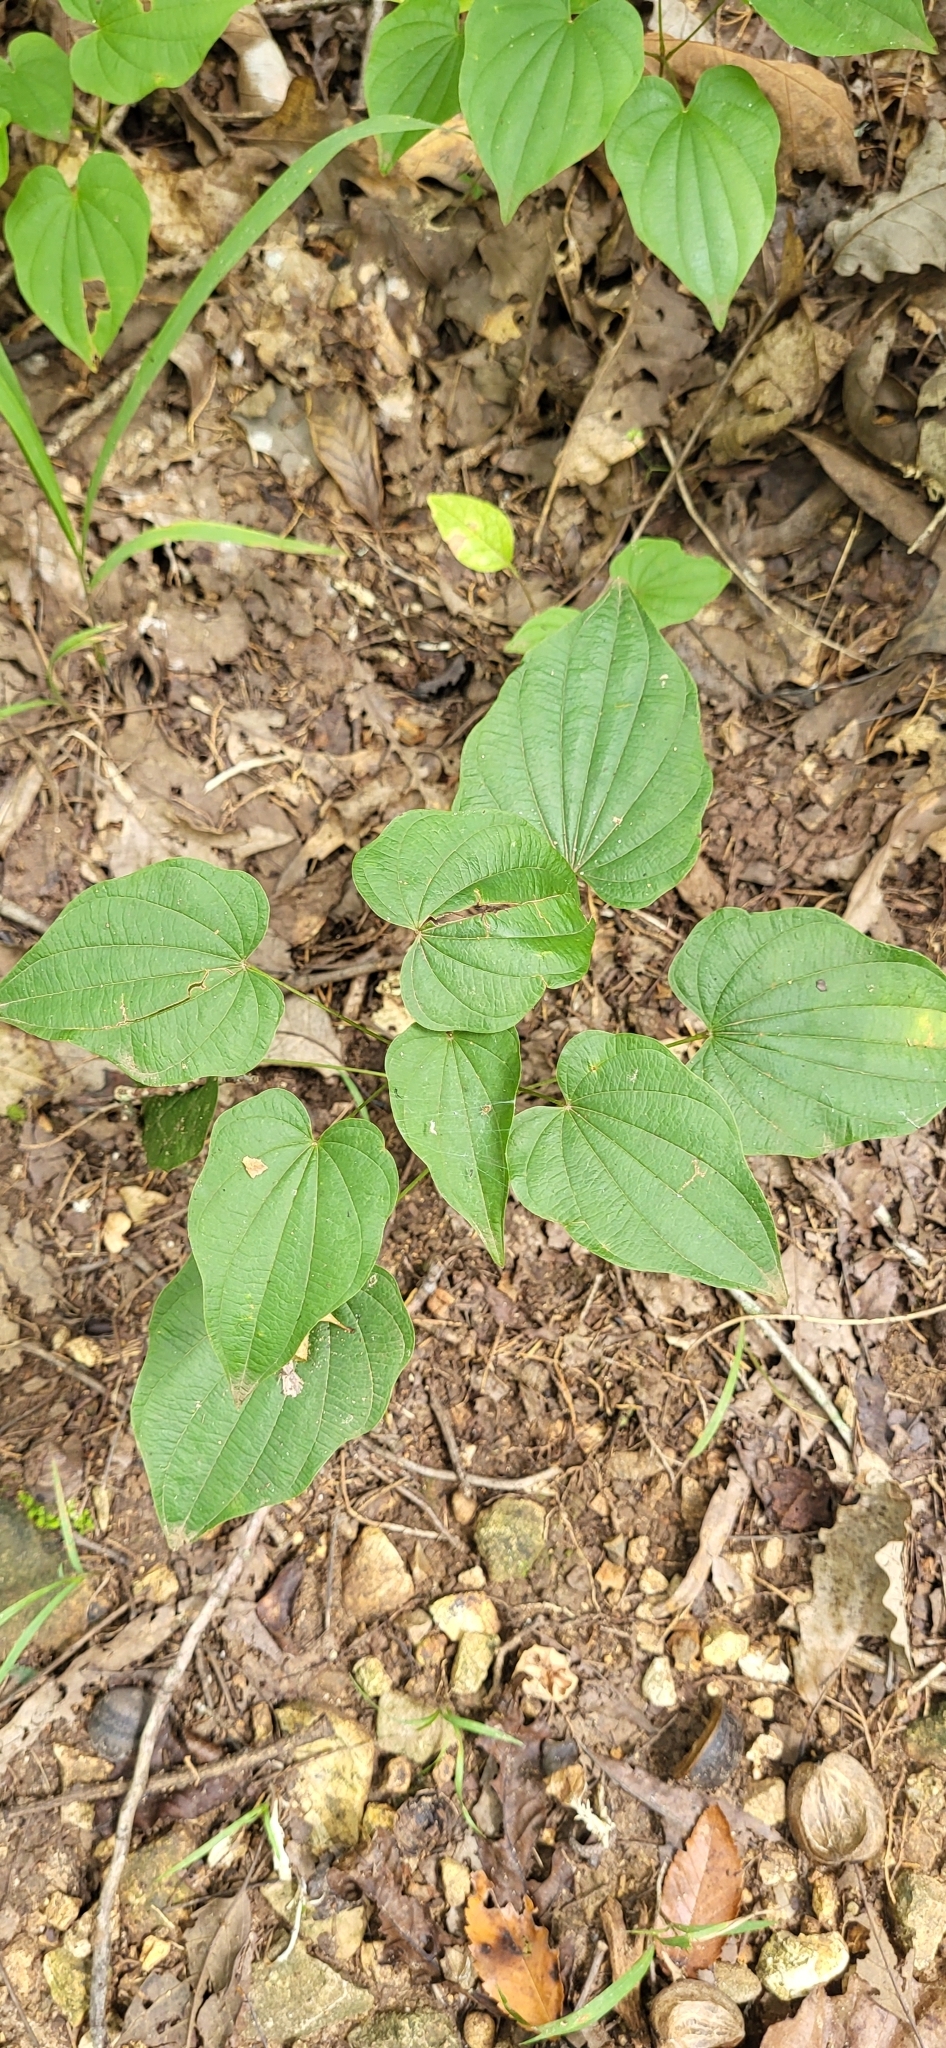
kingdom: Plantae
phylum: Tracheophyta
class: Liliopsida
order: Dioscoreales
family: Dioscoreaceae
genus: Dioscorea
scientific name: Dioscorea villosa
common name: Wild yam
